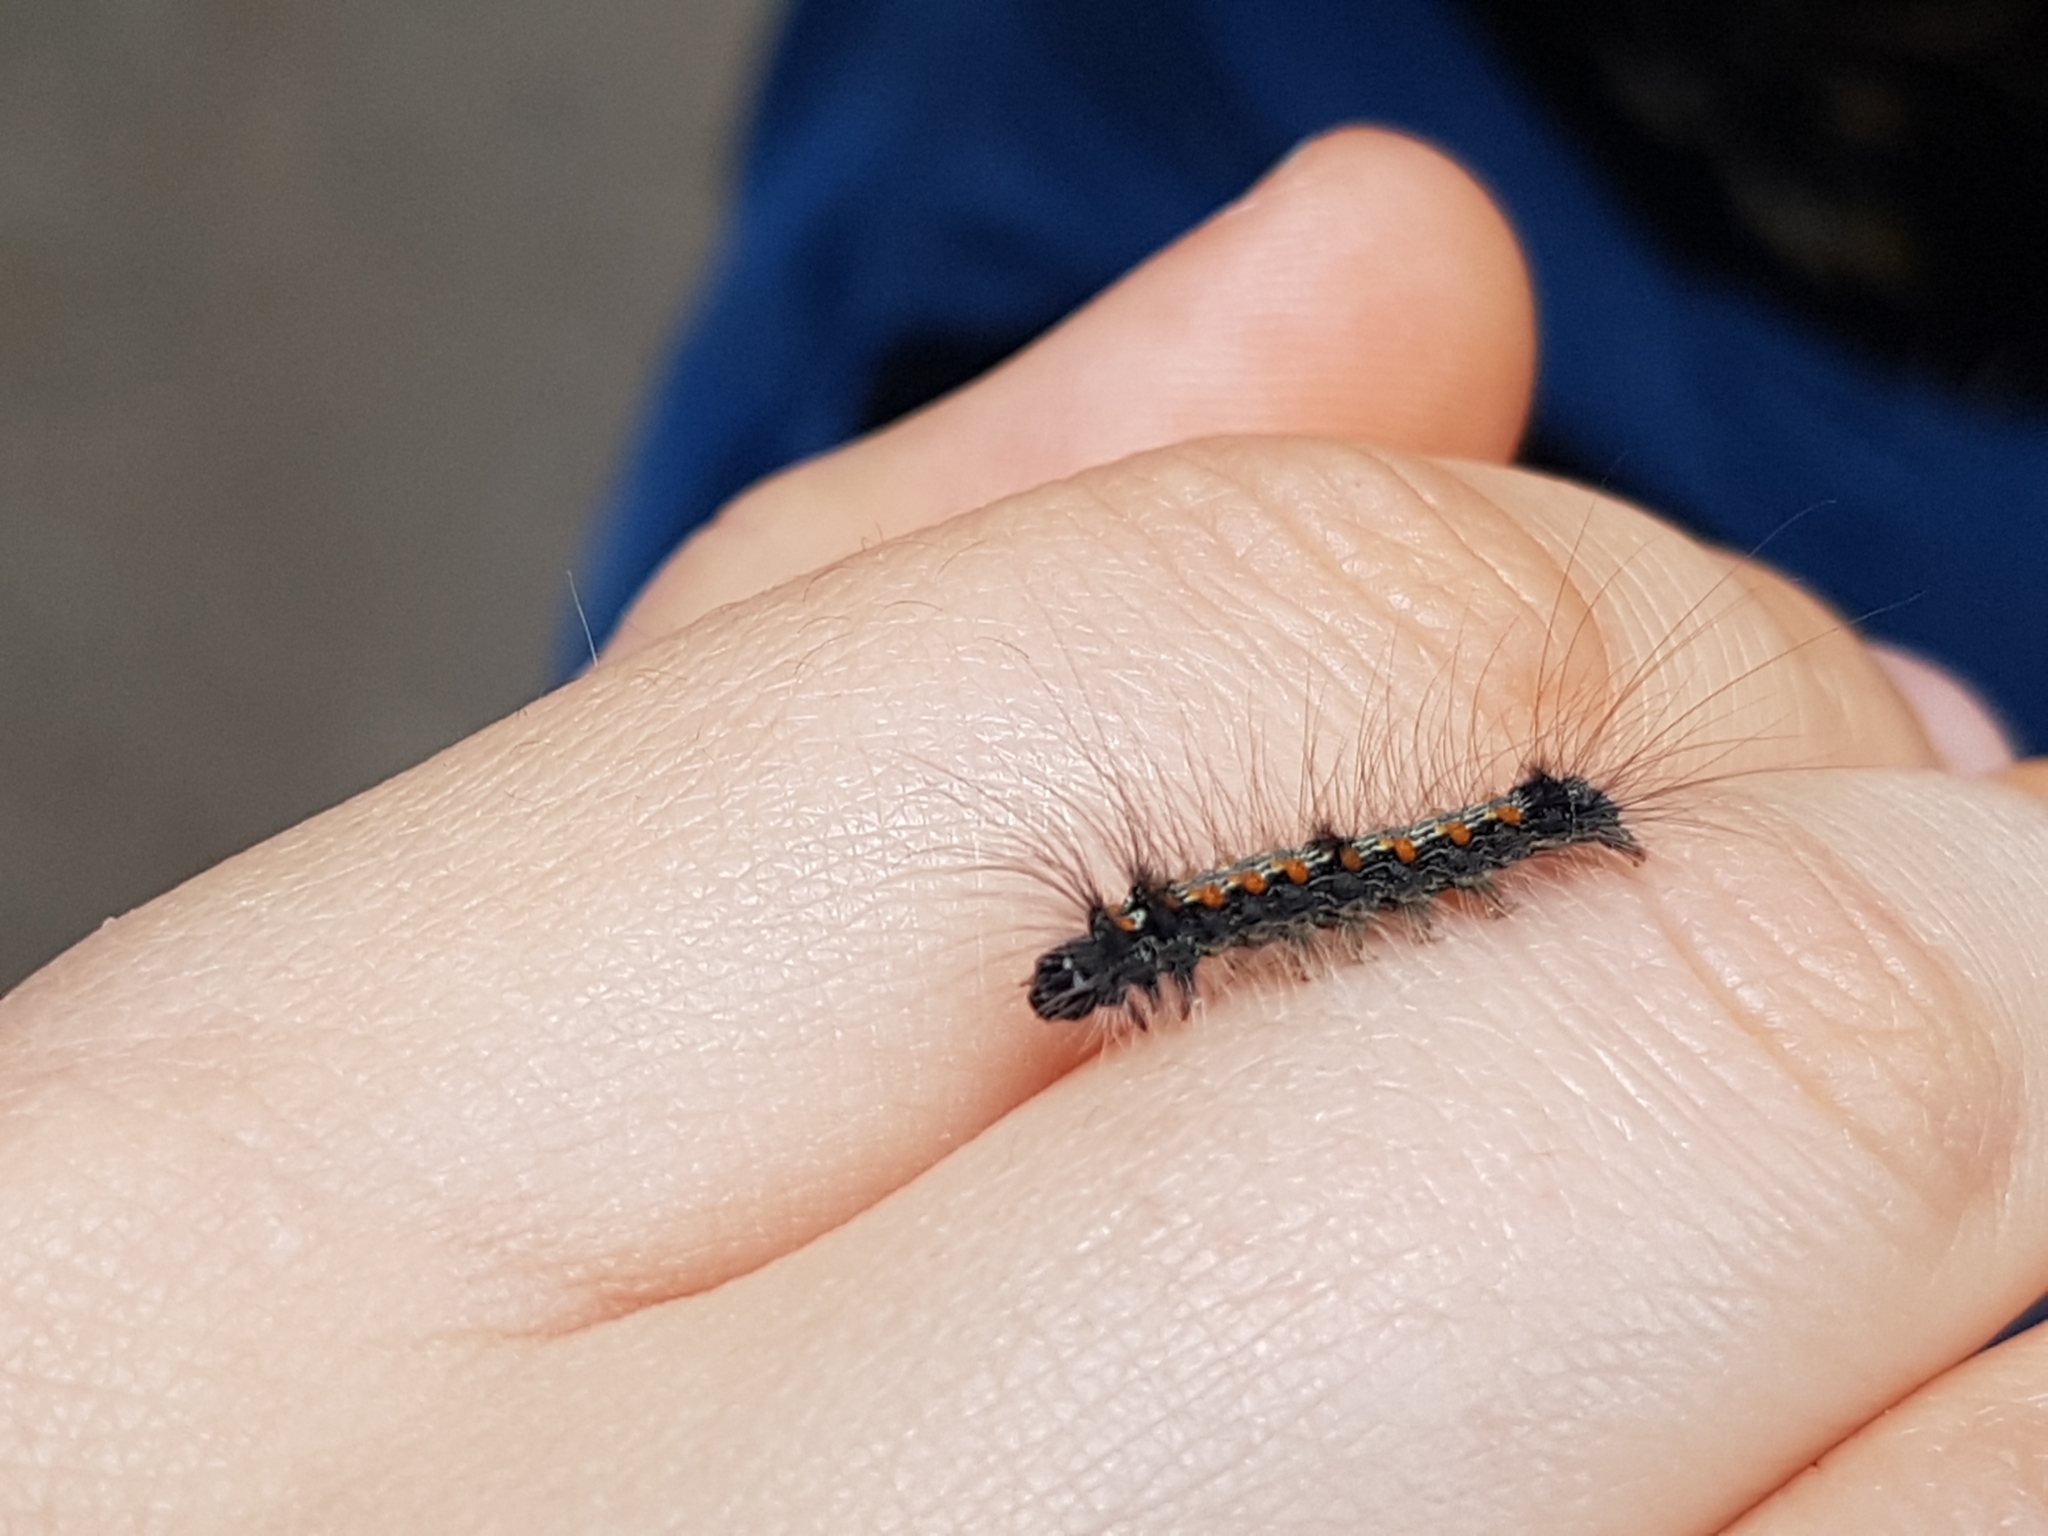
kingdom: Animalia
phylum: Arthropoda
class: Insecta
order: Lepidoptera
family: Erebidae
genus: Lithosia
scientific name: Lithosia quadra
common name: Four-spotted footman
